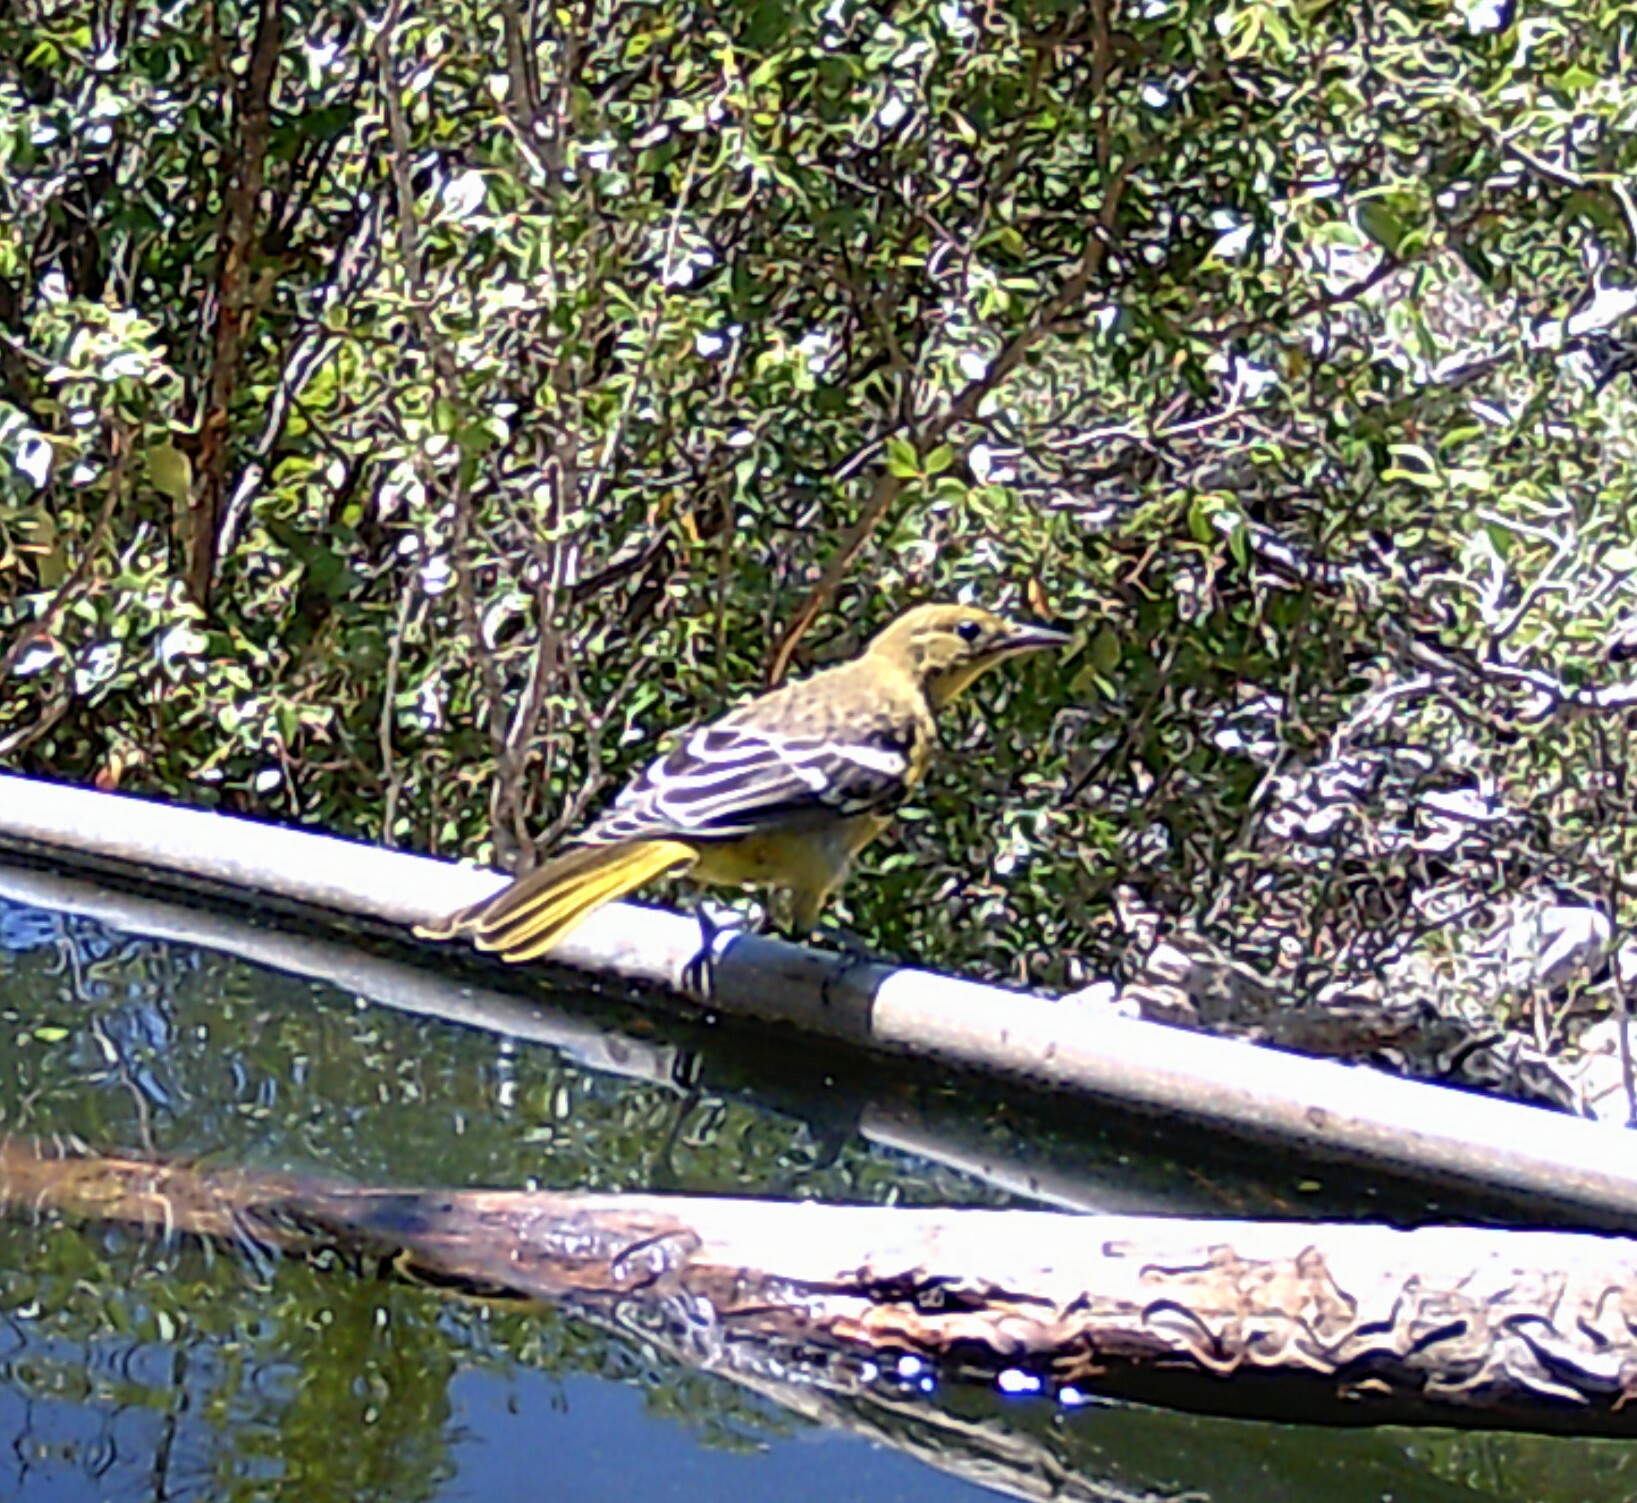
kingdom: Animalia
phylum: Chordata
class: Aves
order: Passeriformes
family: Icteridae
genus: Icterus
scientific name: Icterus parisorum
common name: Scott's oriole
